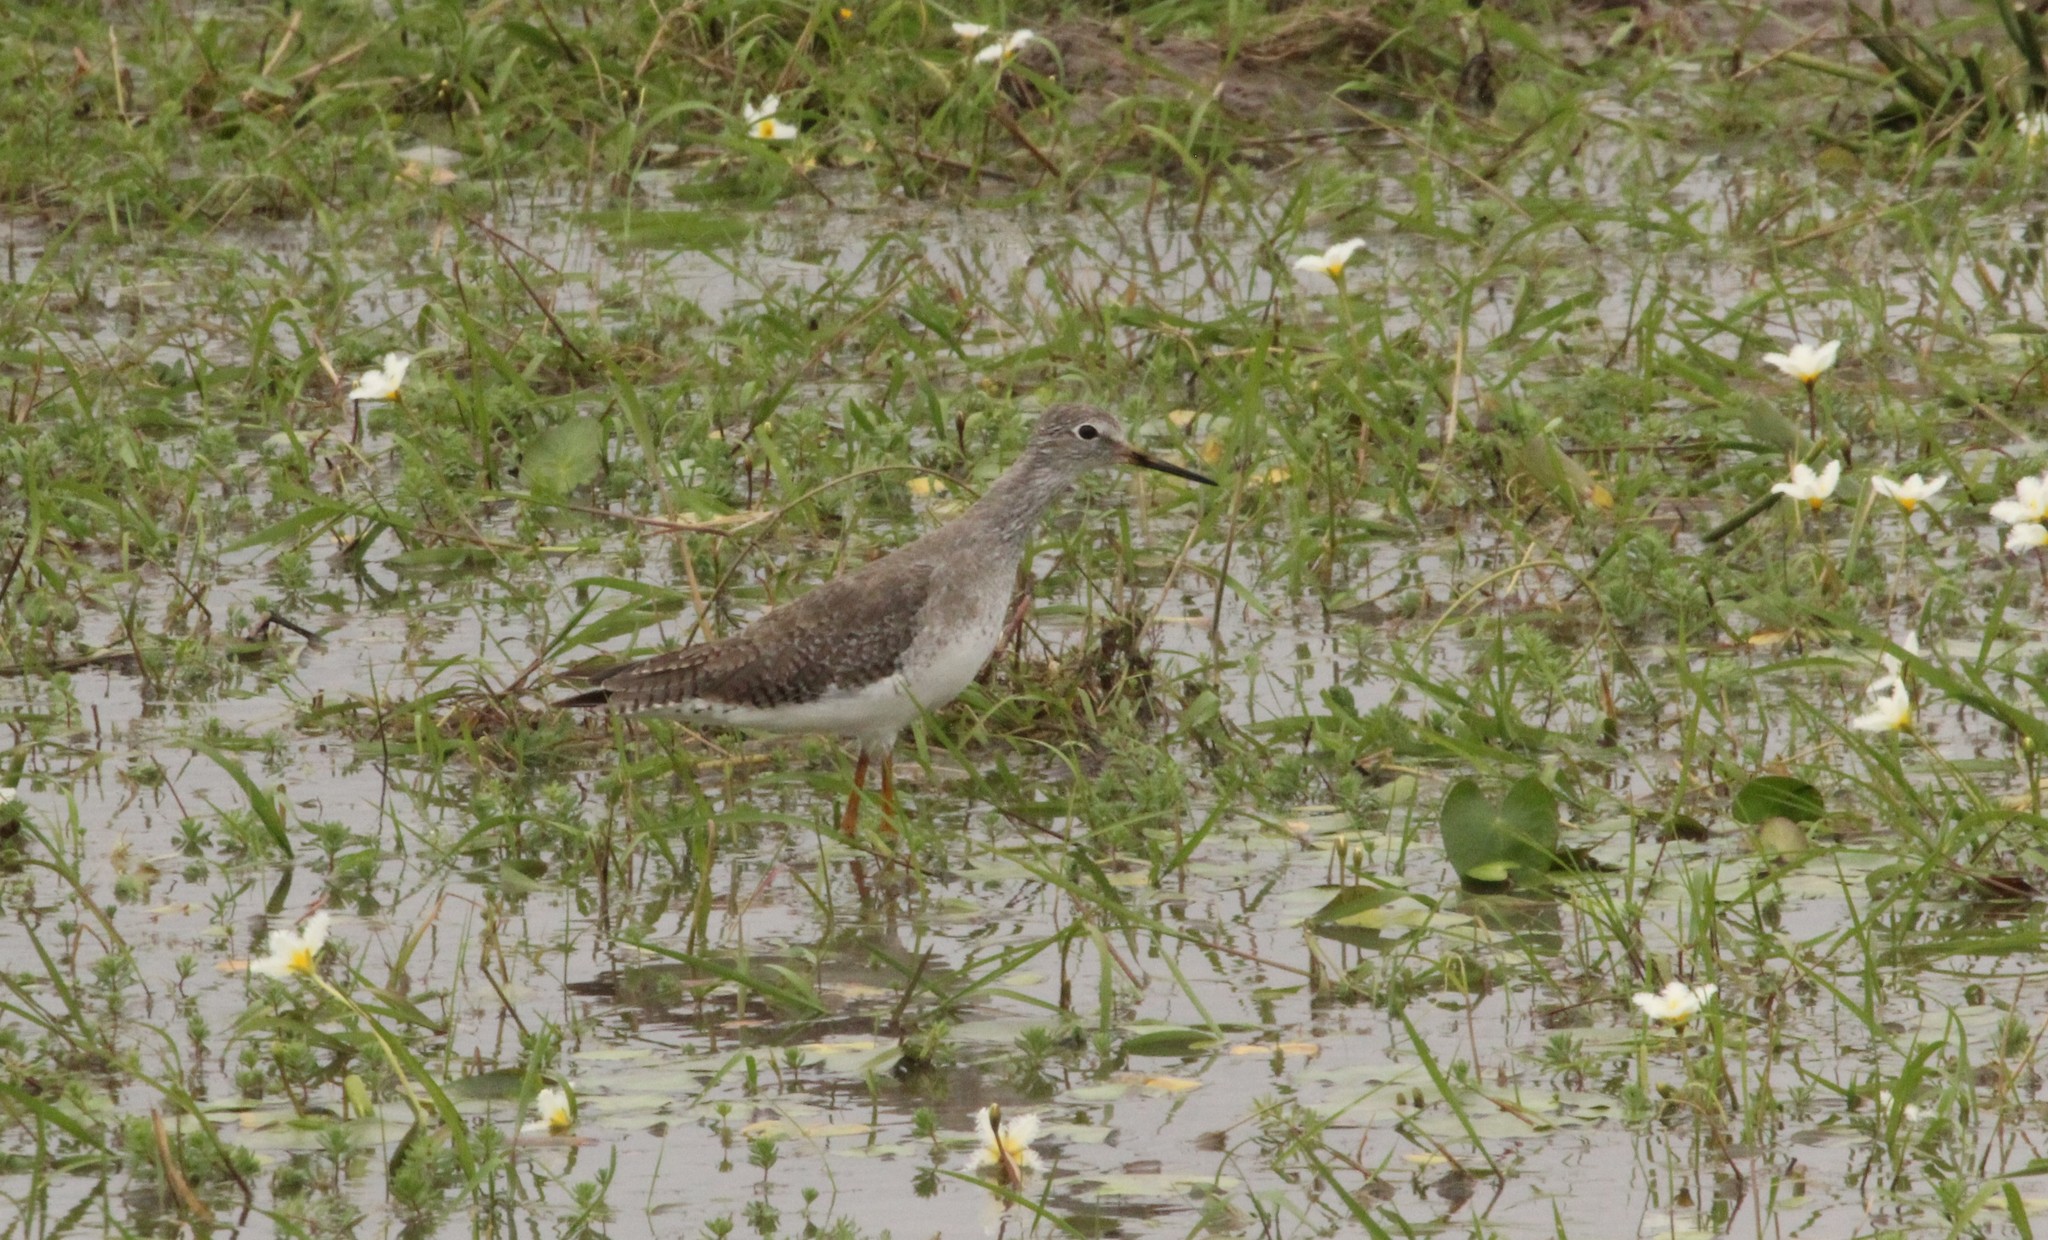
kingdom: Animalia
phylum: Chordata
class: Aves
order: Charadriiformes
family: Scolopacidae
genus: Tringa
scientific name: Tringa flavipes
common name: Lesser yellowlegs
